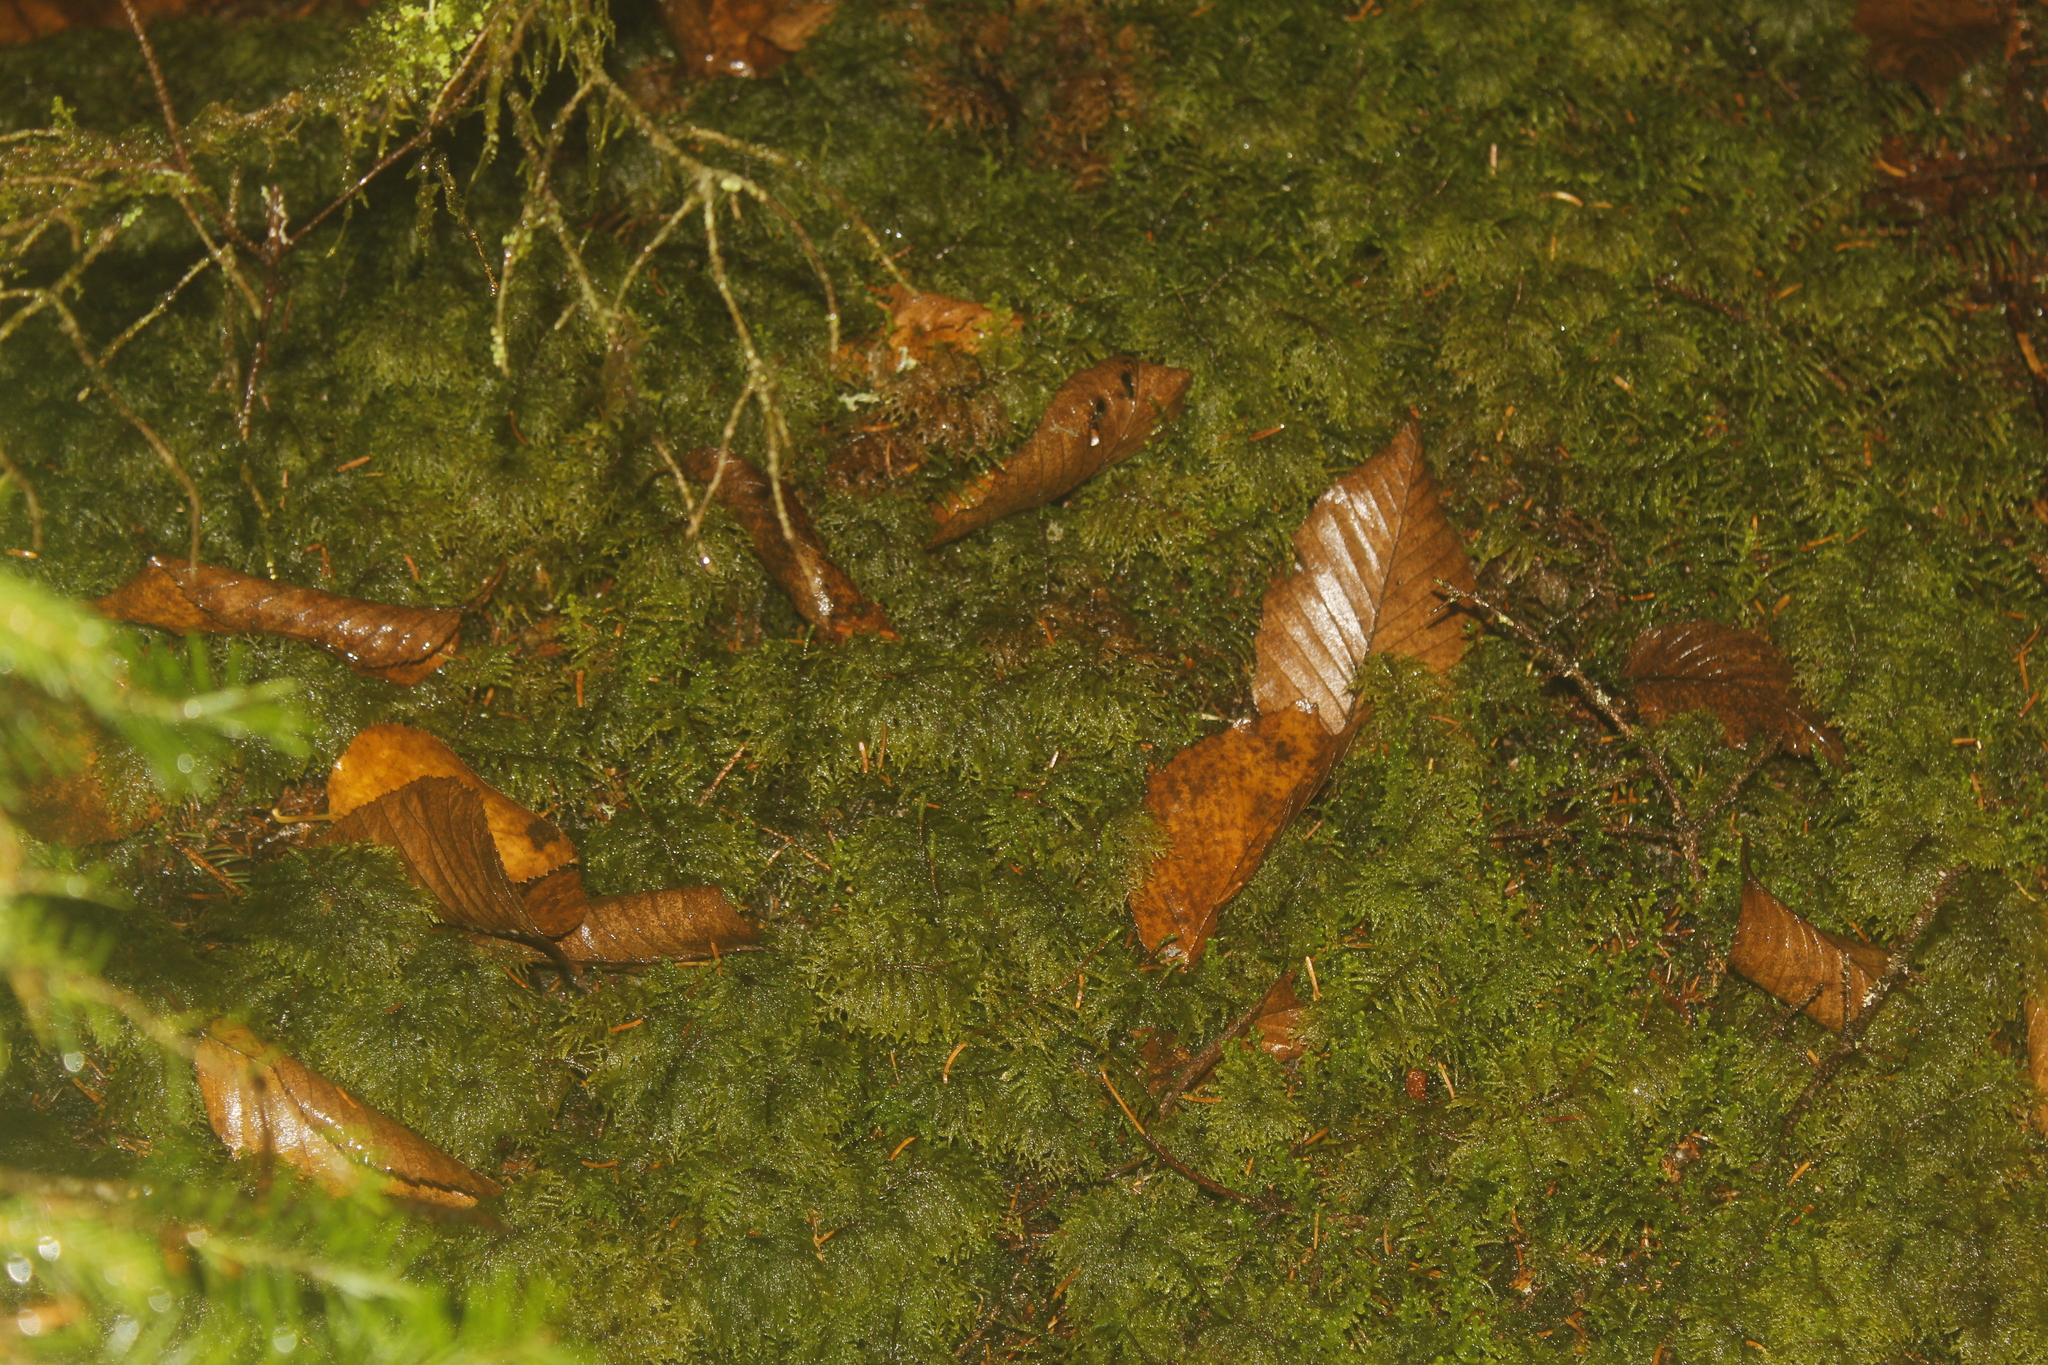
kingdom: Plantae
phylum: Bryophyta
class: Bryopsida
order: Hypnales
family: Hylocomiaceae
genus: Hylocomium
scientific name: Hylocomium splendens
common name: Stairstep moss
